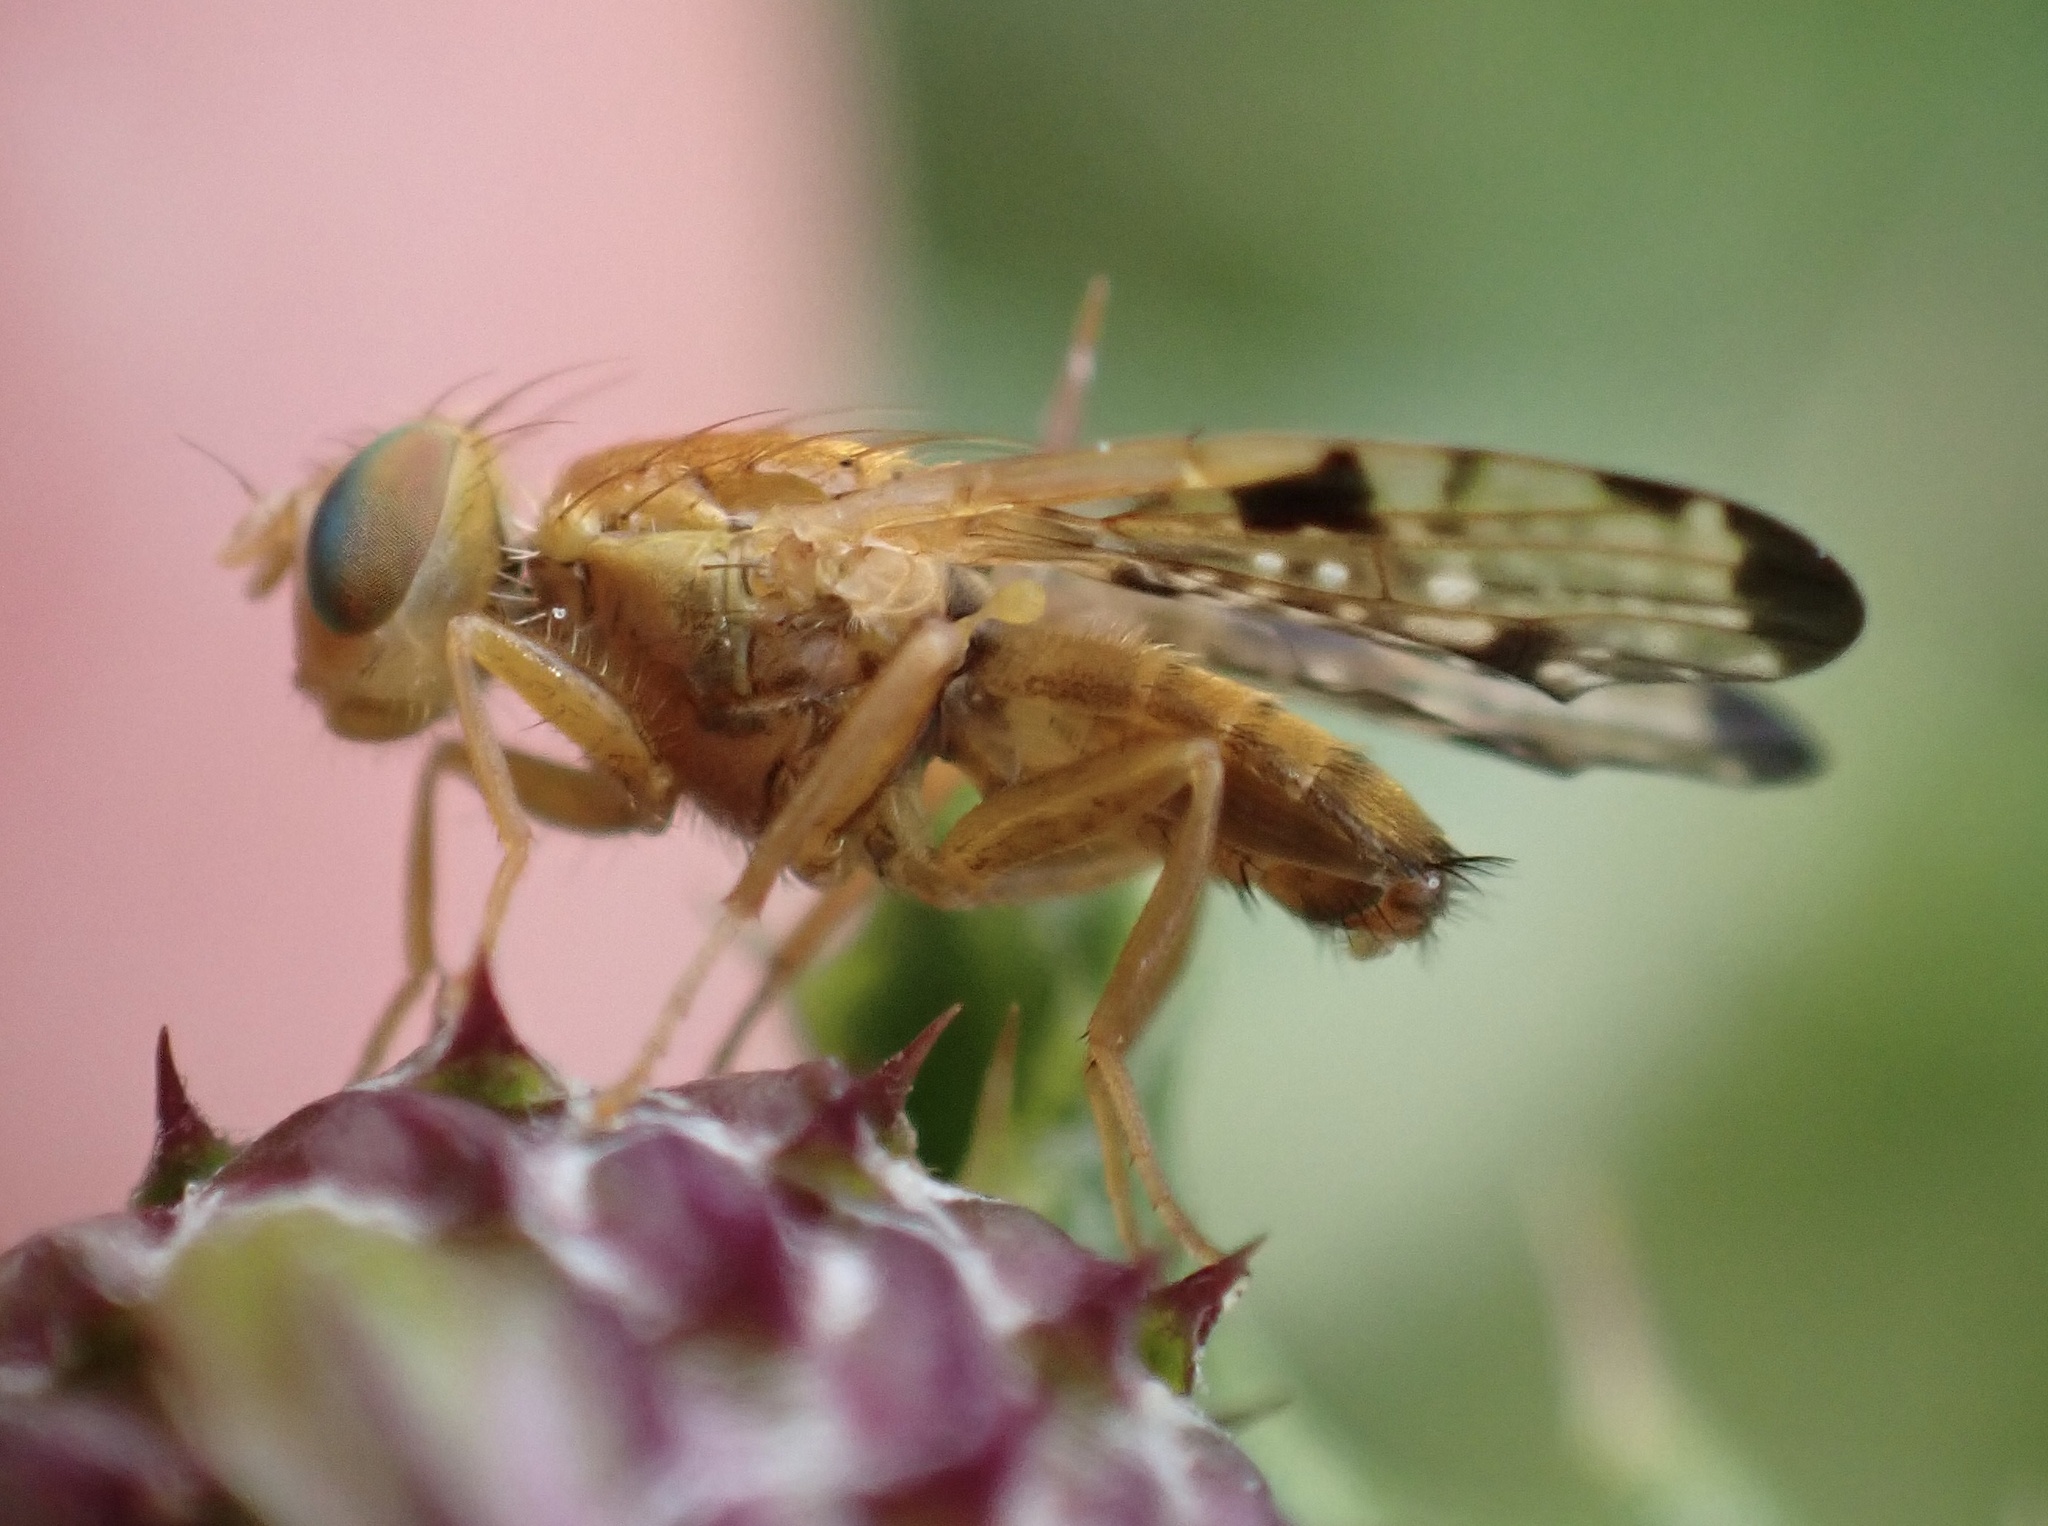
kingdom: Animalia
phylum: Arthropoda
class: Insecta
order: Diptera
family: Tephritidae
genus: Xyphosia
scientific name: Xyphosia miliaria
